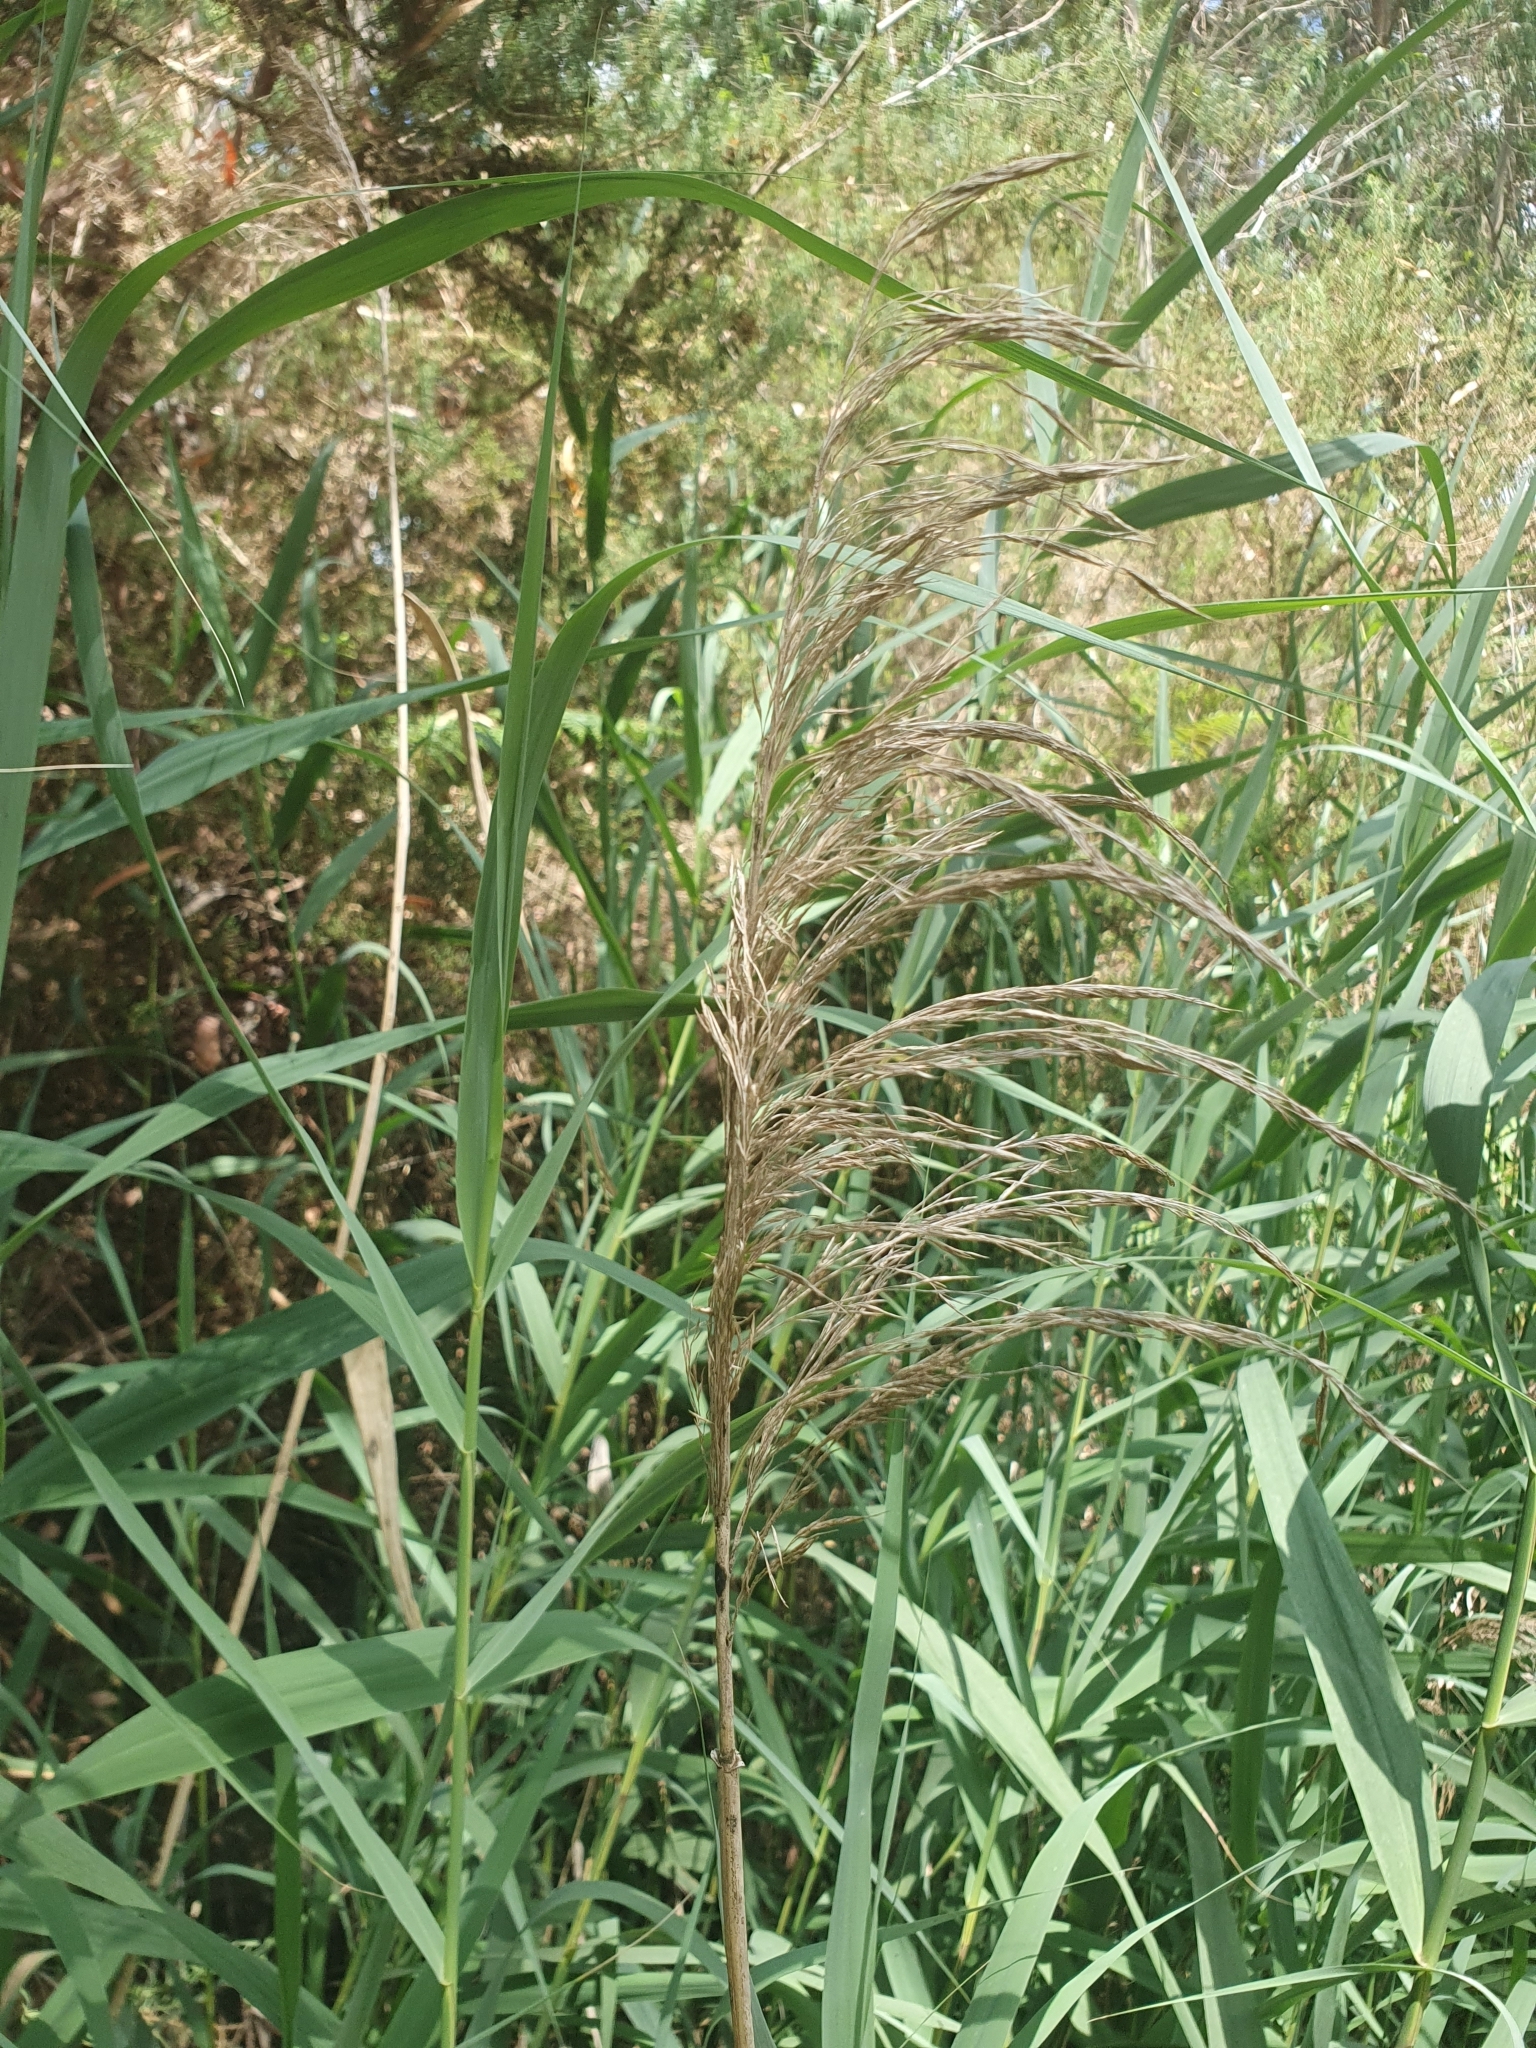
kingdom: Plantae
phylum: Tracheophyta
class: Liliopsida
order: Poales
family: Poaceae
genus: Phragmites
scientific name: Phragmites australis
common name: Common reed
